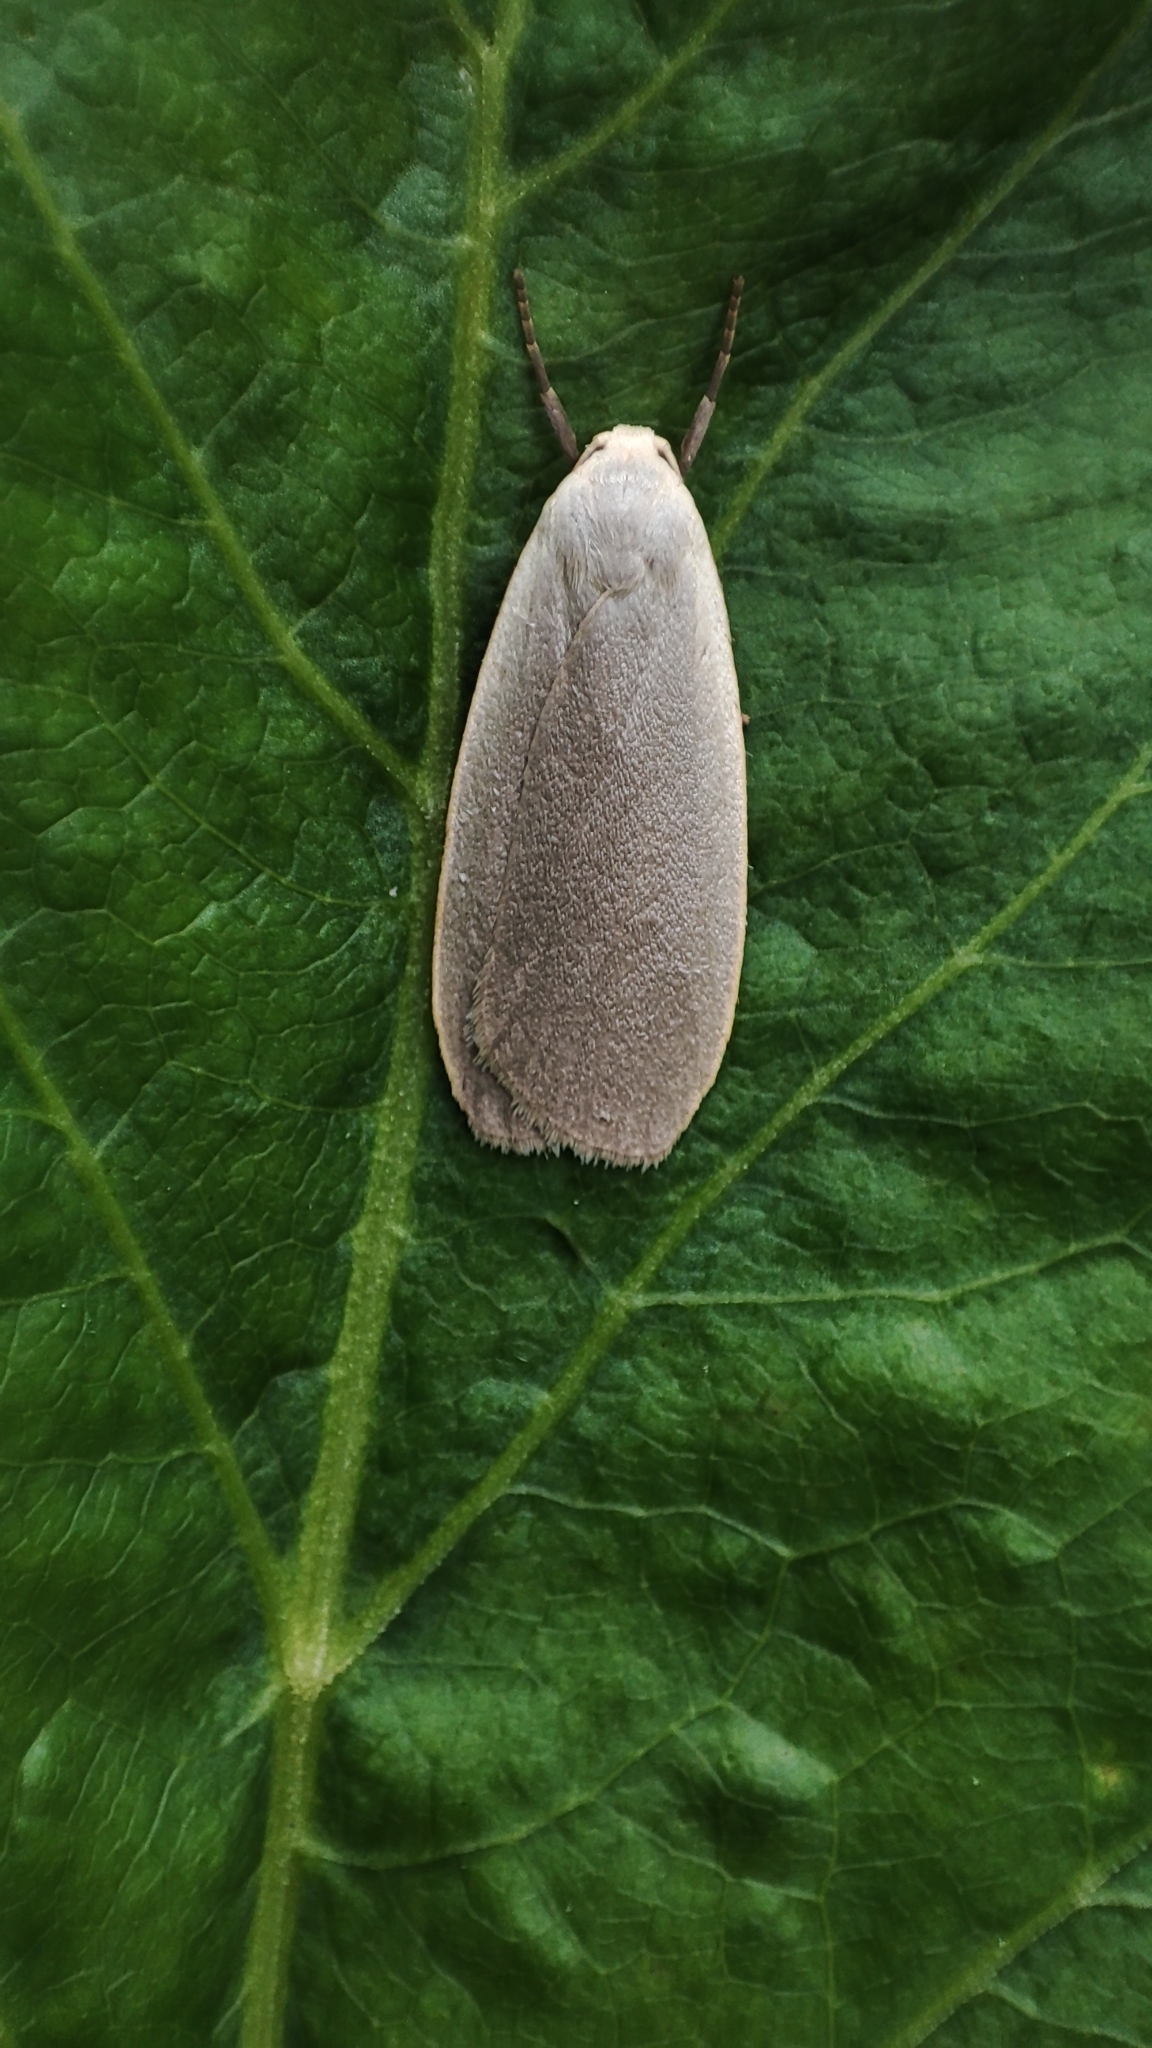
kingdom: Animalia
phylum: Arthropoda
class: Insecta
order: Lepidoptera
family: Erebidae
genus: Collita
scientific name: Collita griseola
